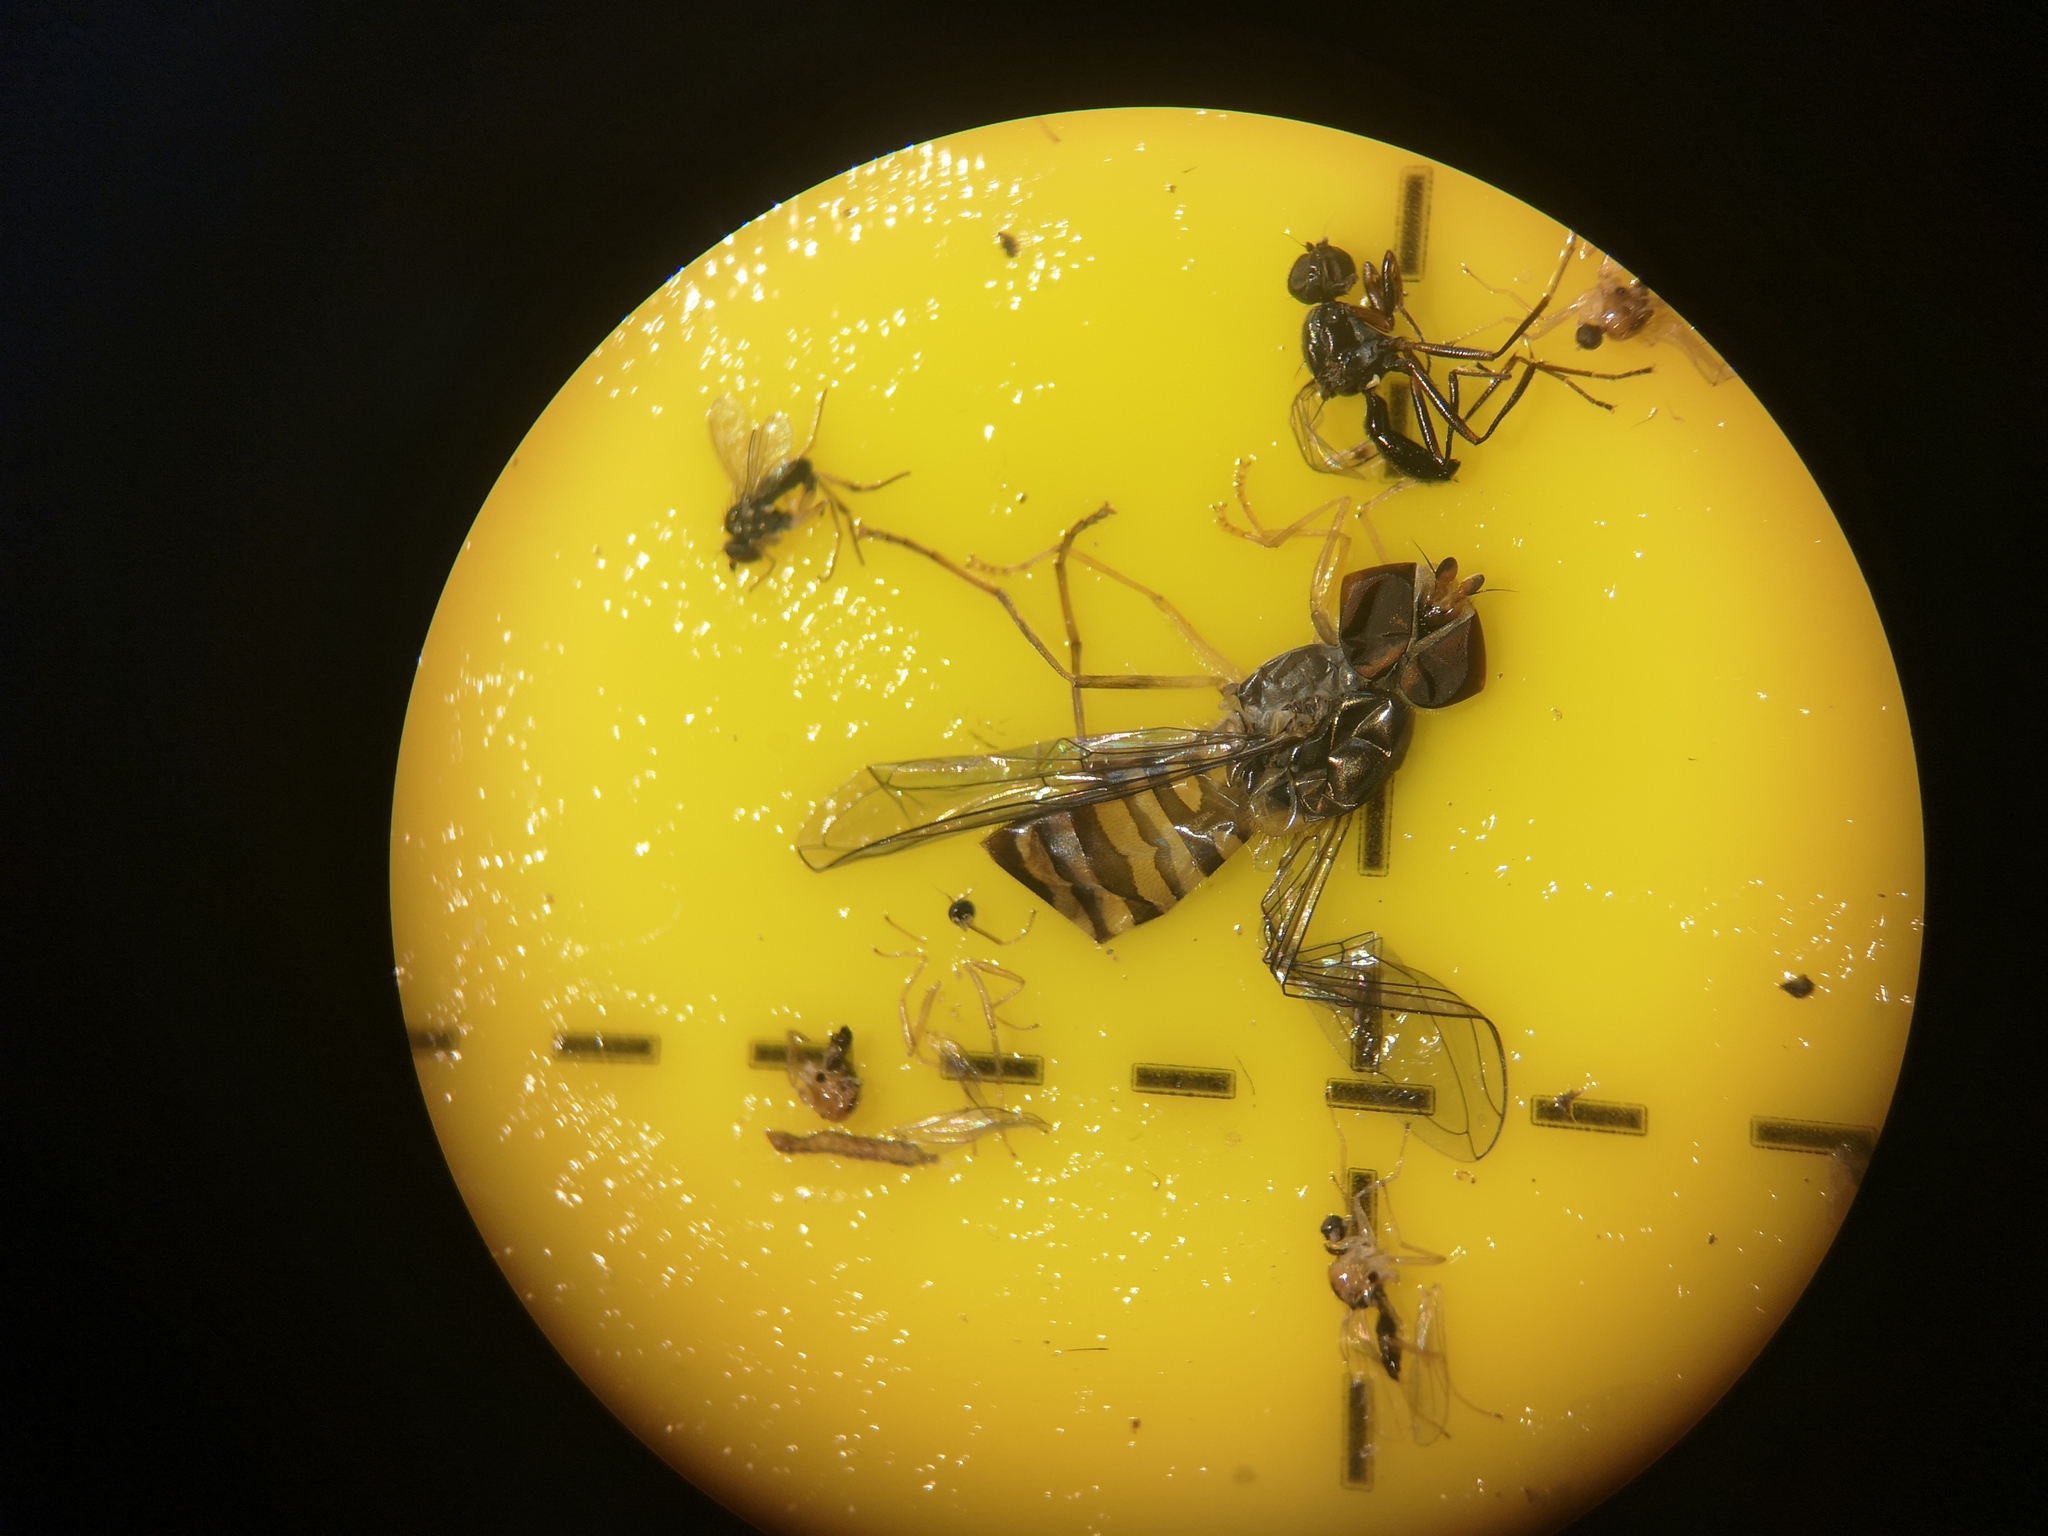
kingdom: Animalia
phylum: Arthropoda
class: Insecta
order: Diptera
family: Syrphidae
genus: Episyrphus
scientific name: Episyrphus balteatus
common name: Marmalade hoverfly
